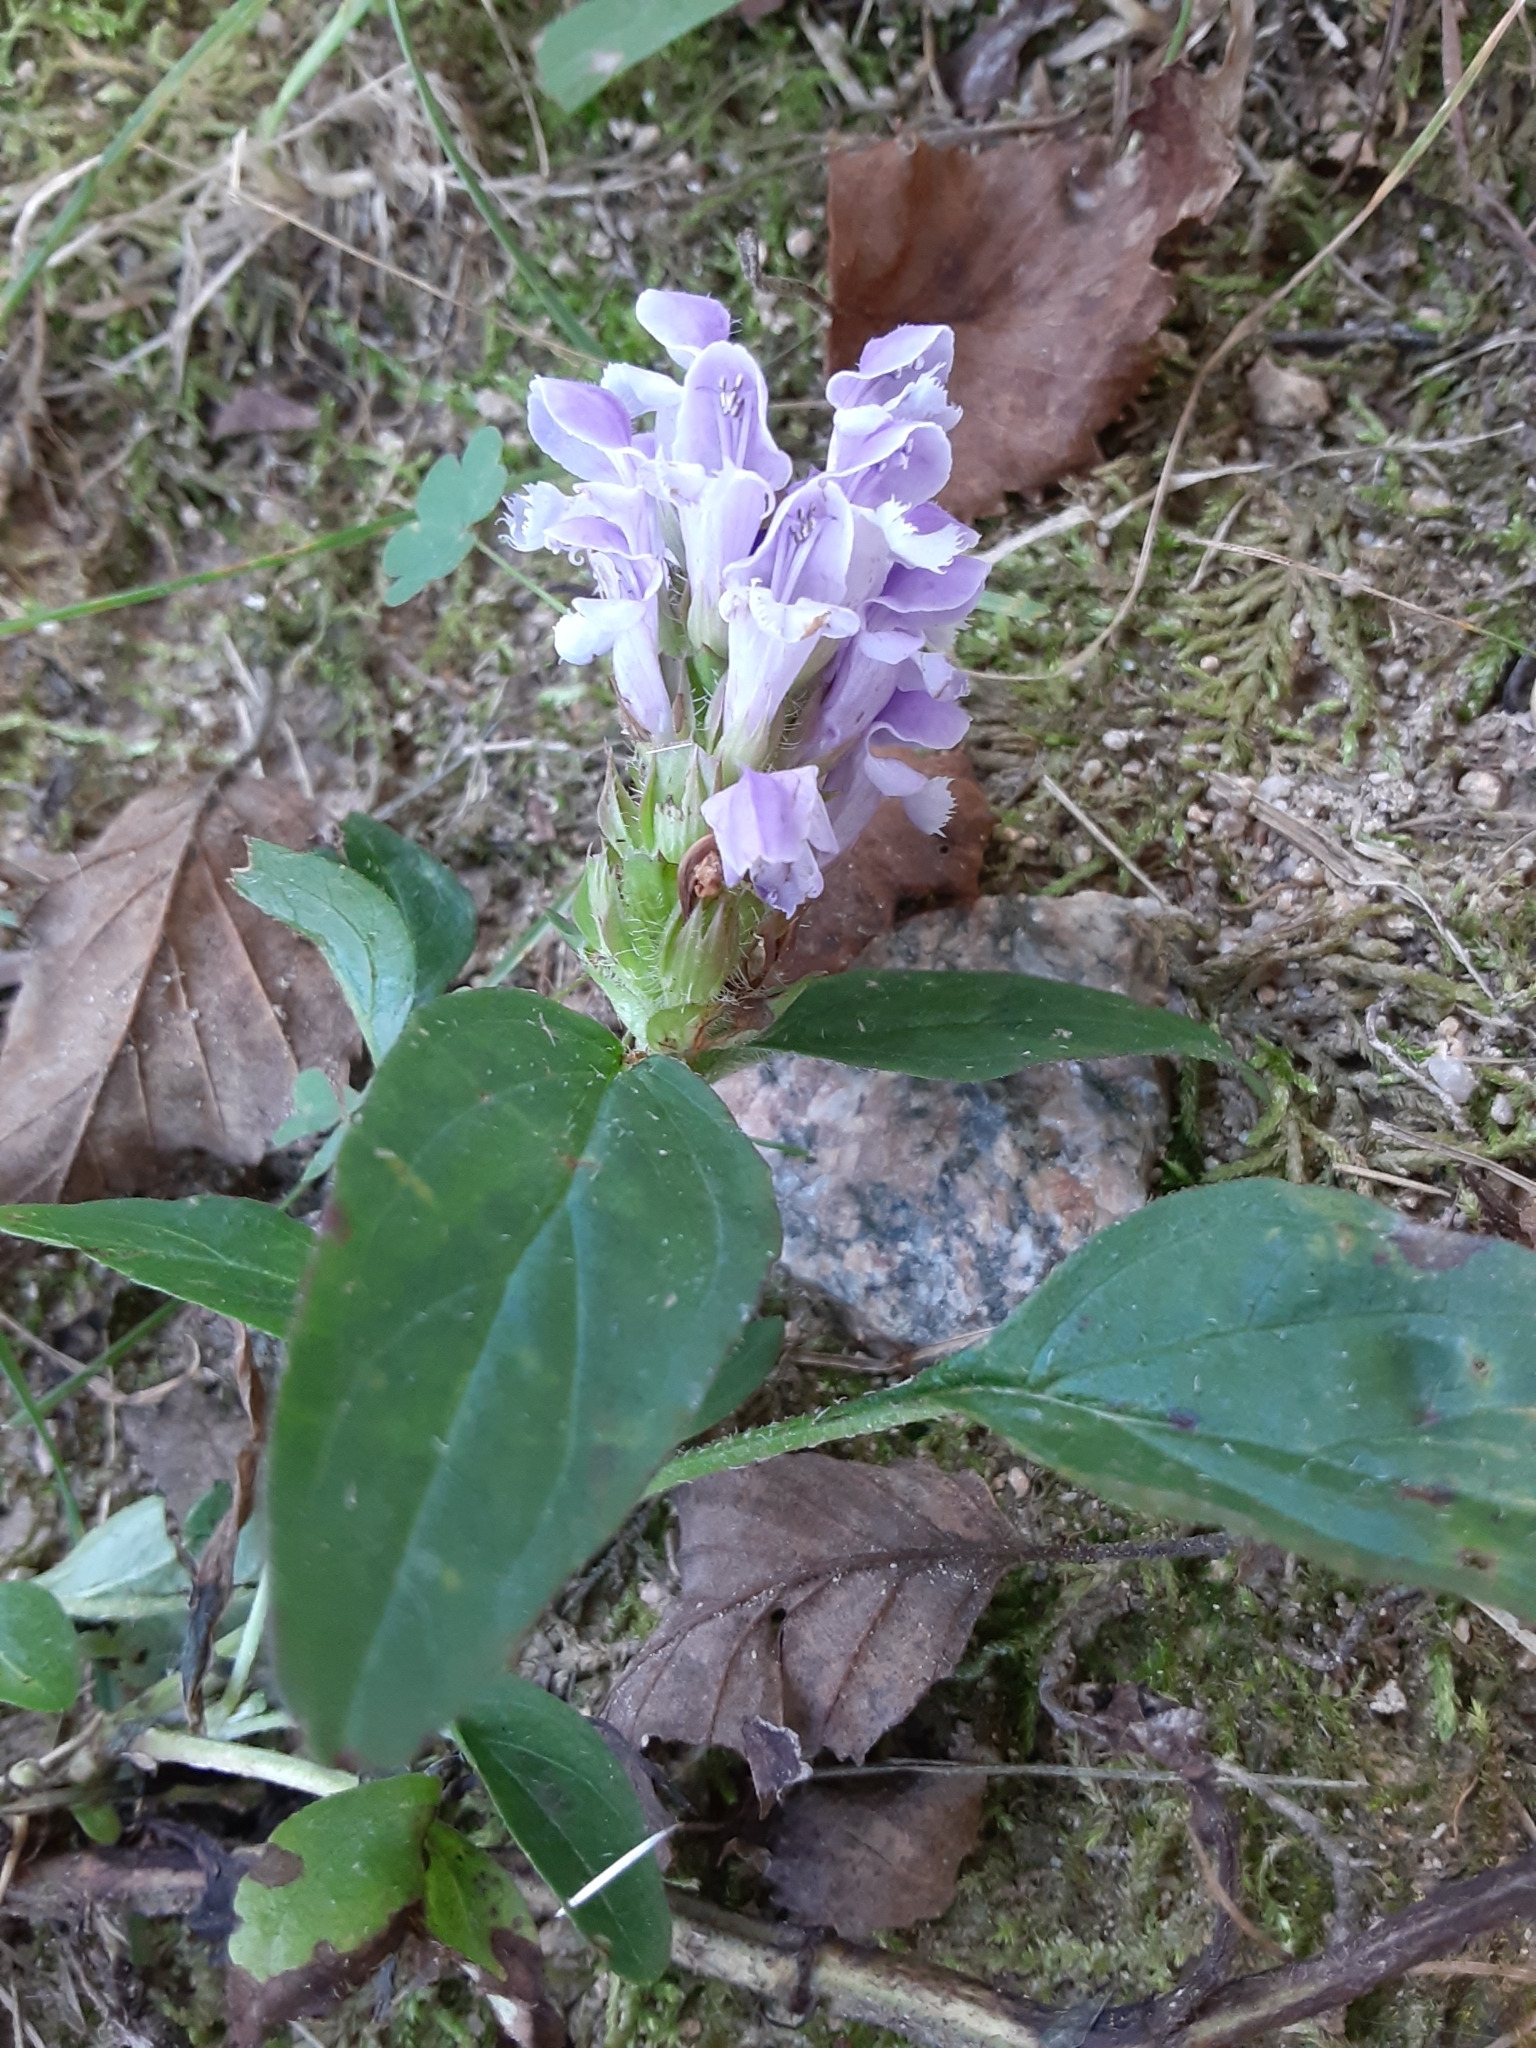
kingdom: Plantae
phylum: Tracheophyta
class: Magnoliopsida
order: Lamiales
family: Lamiaceae
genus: Prunella
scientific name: Prunella vulgaris
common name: Heal-all
